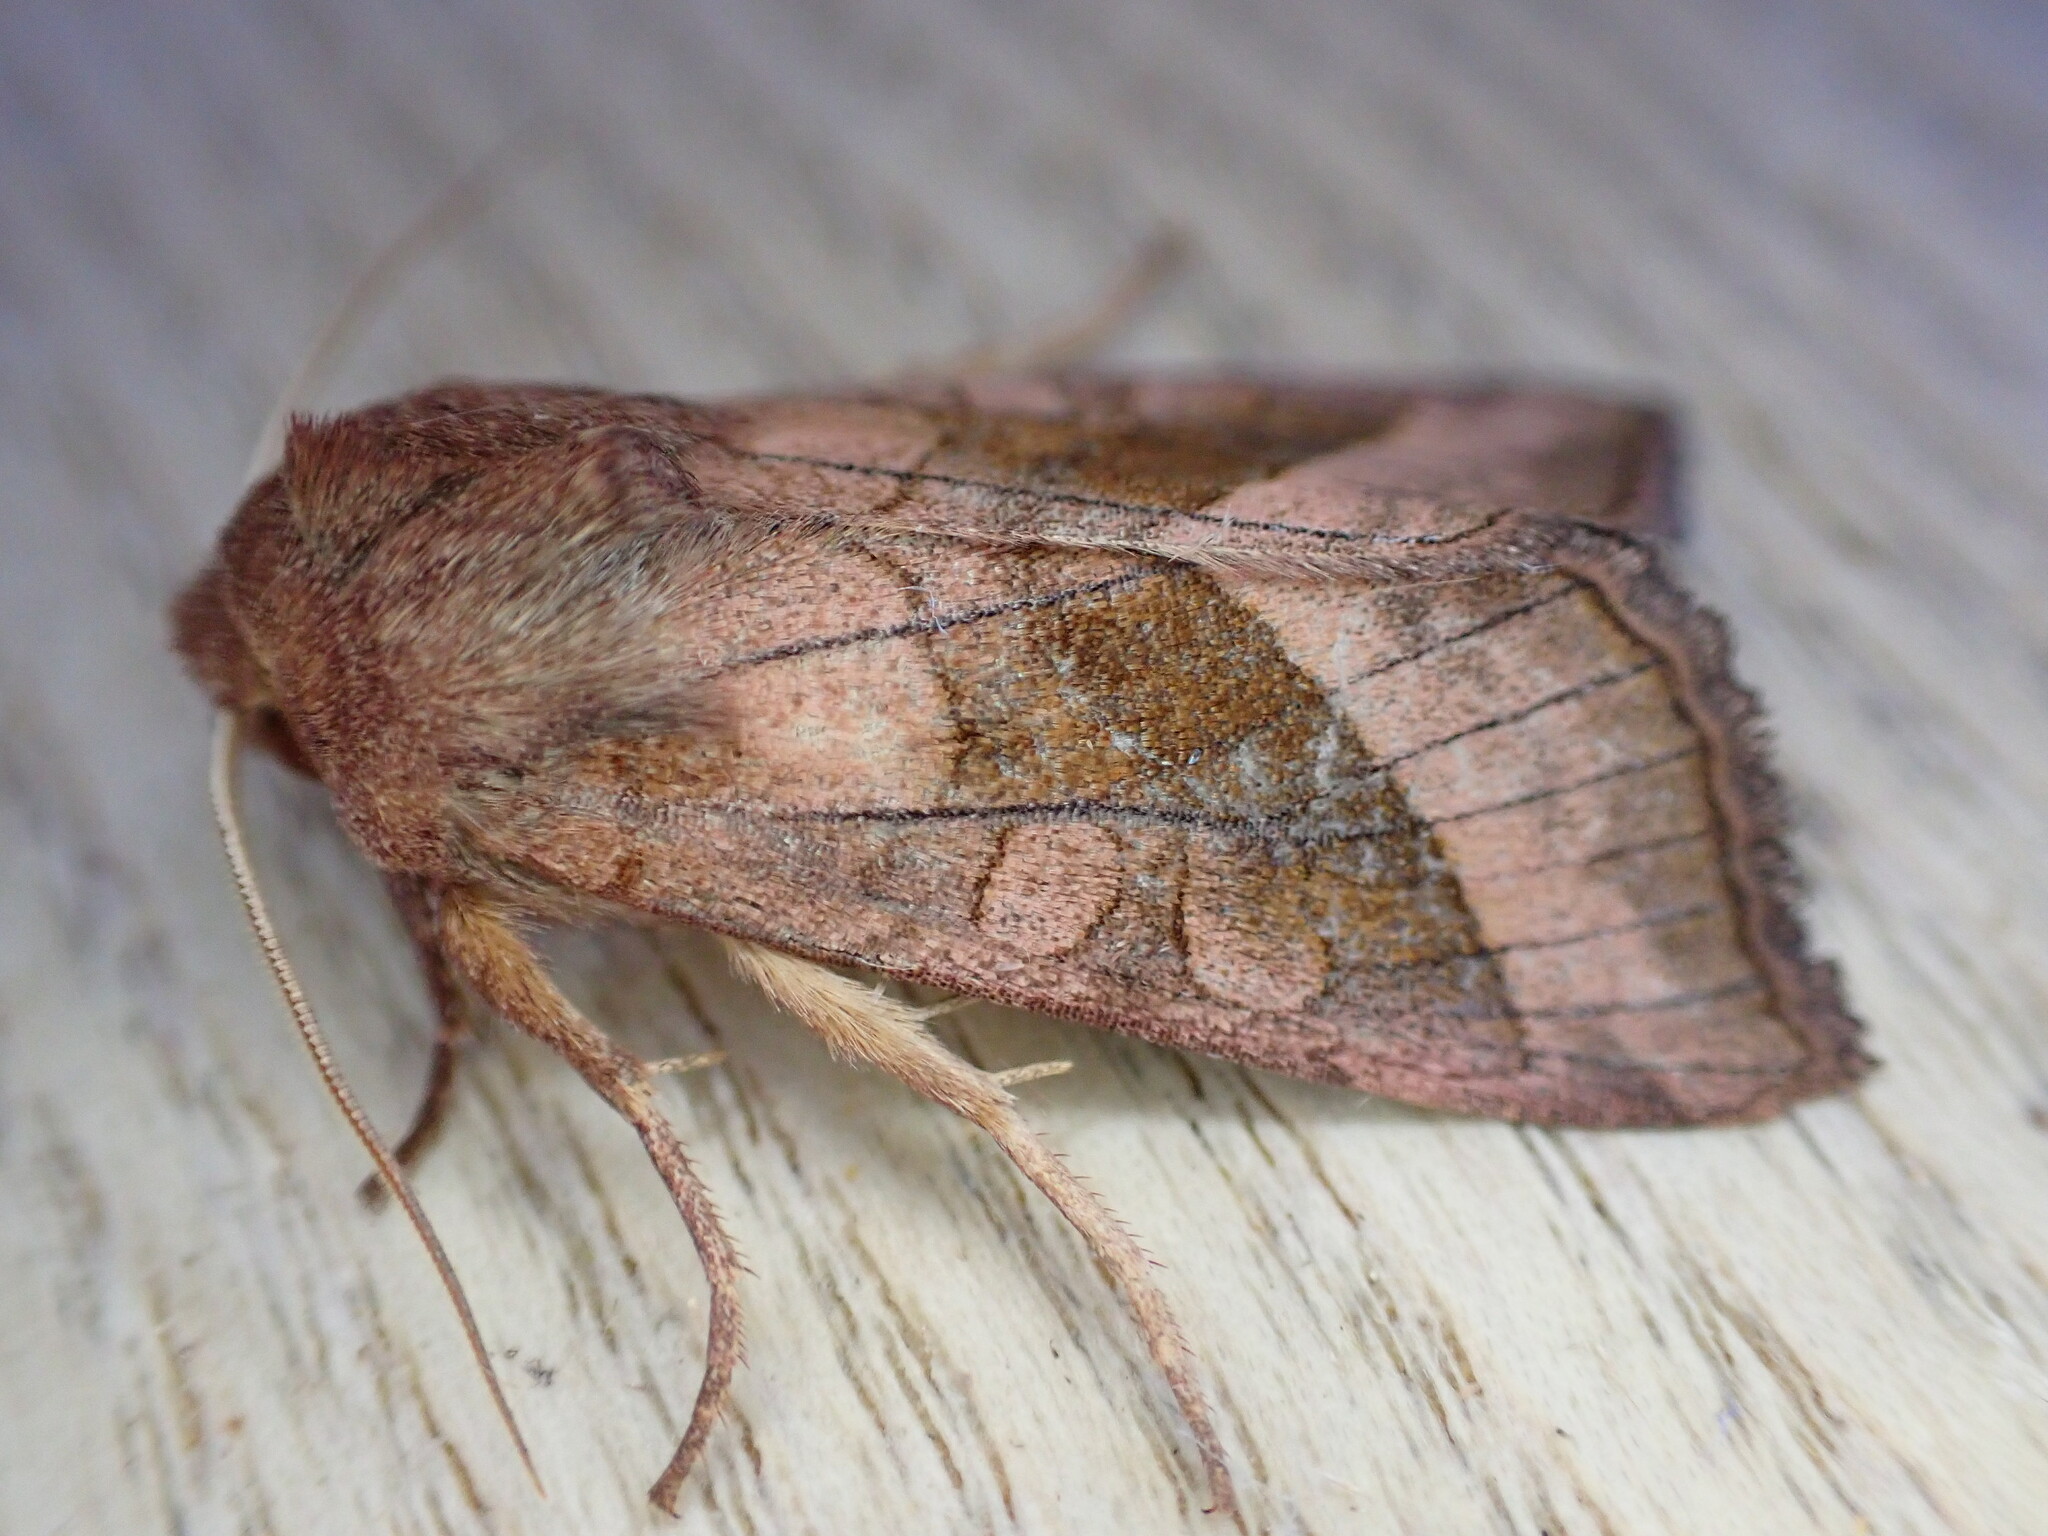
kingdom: Animalia
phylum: Arthropoda
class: Insecta
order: Lepidoptera
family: Noctuidae
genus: Hydraecia
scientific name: Hydraecia micacea
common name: Rosy rustic
